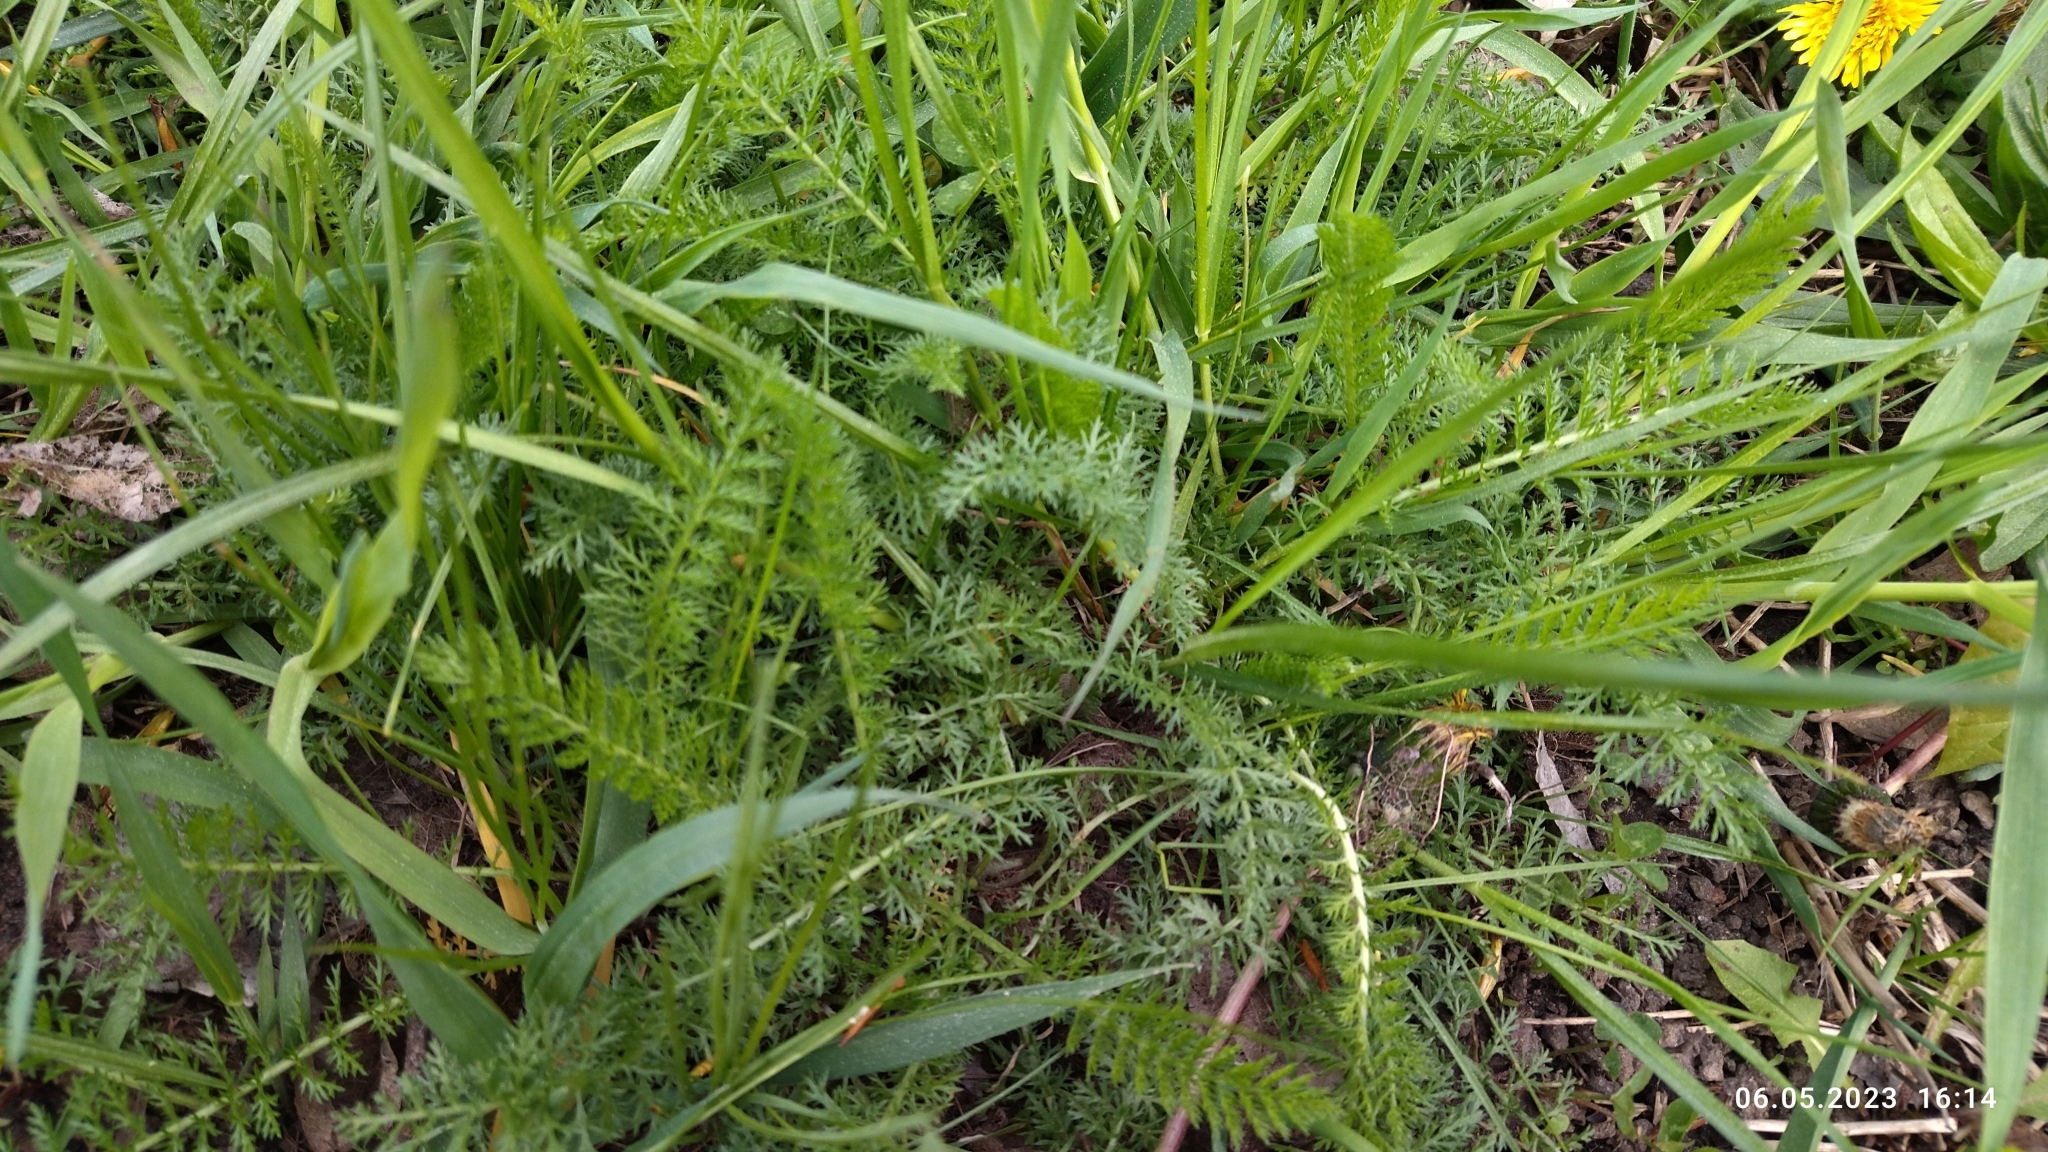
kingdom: Plantae
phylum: Tracheophyta
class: Magnoliopsida
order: Asterales
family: Asteraceae
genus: Achillea
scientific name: Achillea millefolium
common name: Yarrow
